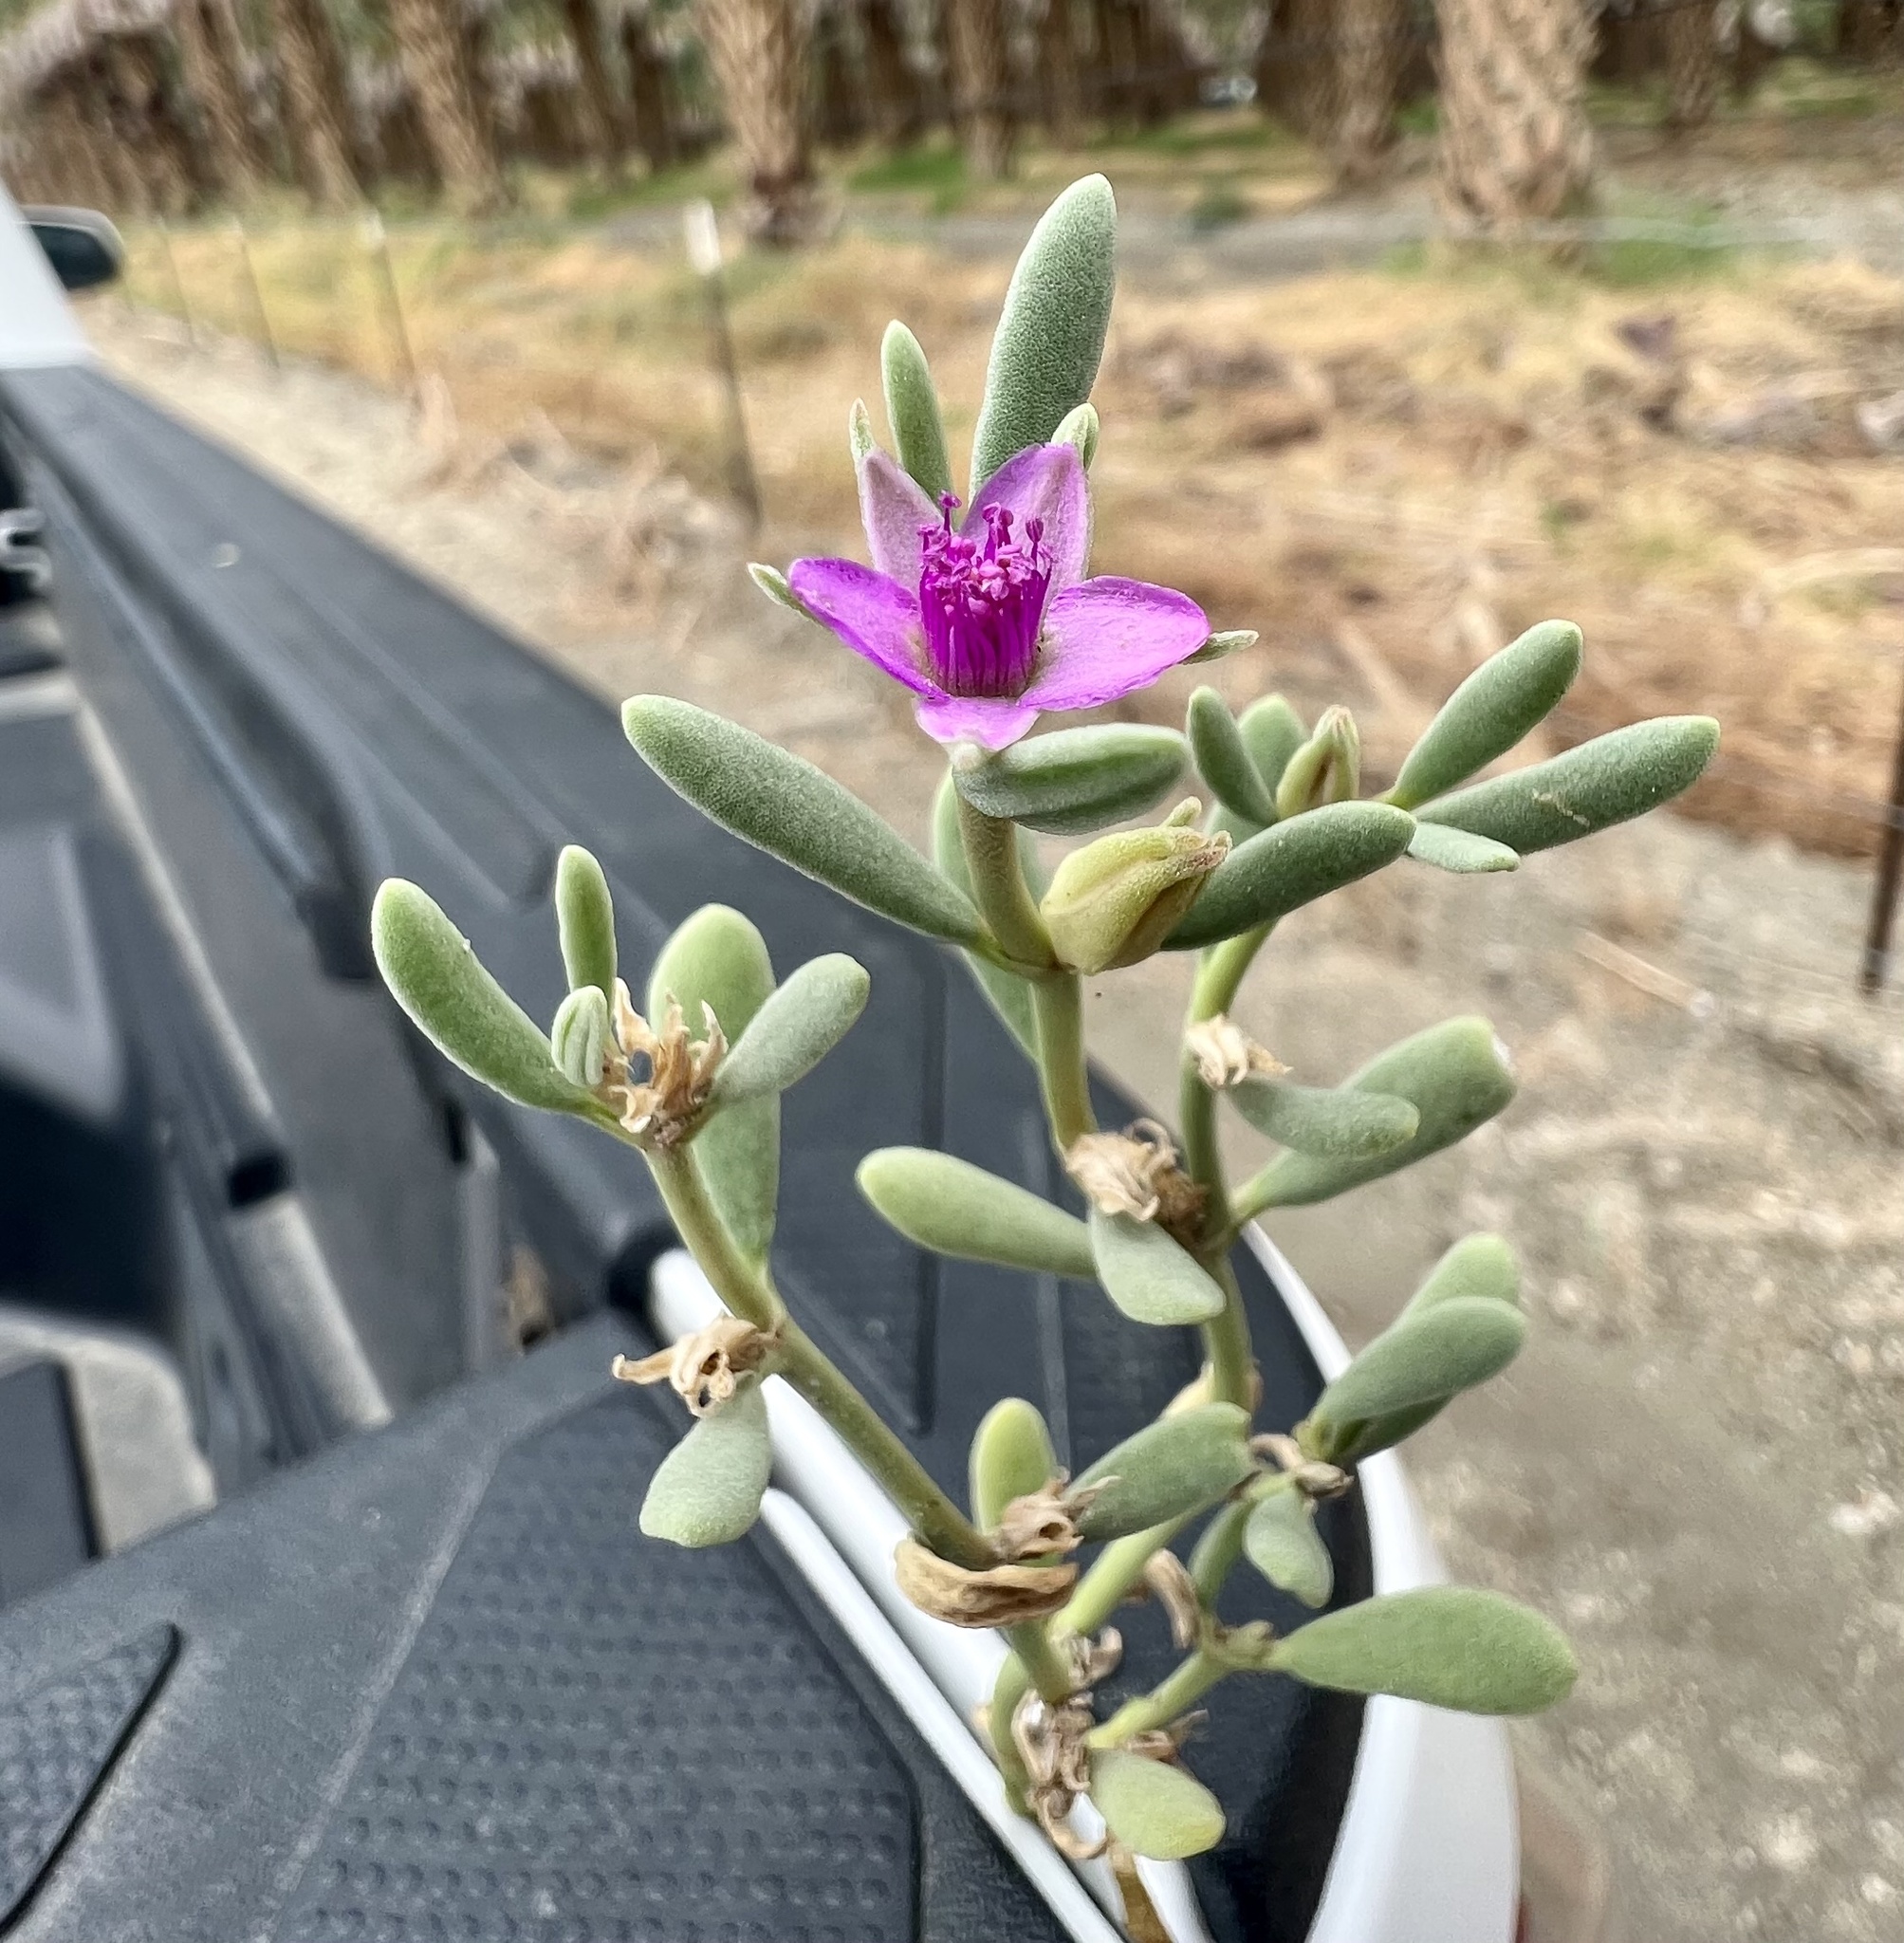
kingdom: Plantae
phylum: Tracheophyta
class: Magnoliopsida
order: Caryophyllales
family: Aizoaceae
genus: Sesuvium
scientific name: Sesuvium revolutifolium
